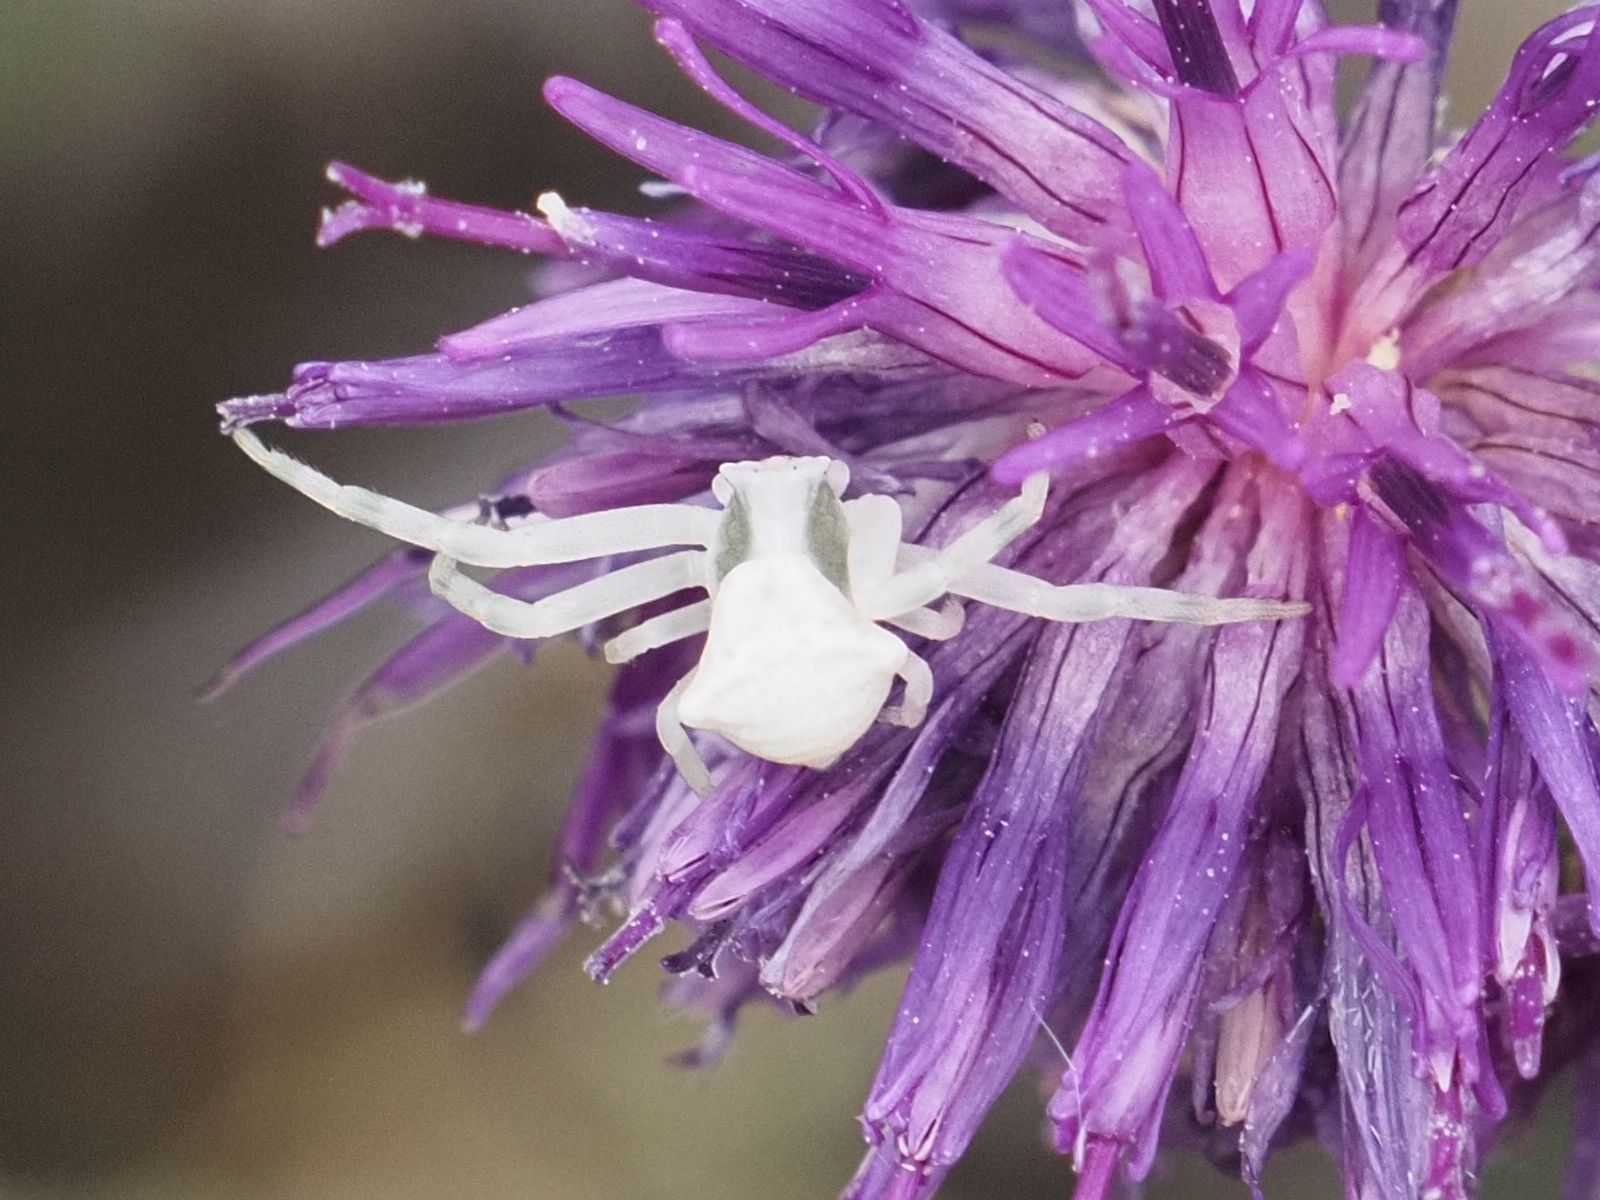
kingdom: Animalia
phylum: Arthropoda
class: Arachnida
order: Araneae
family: Thomisidae
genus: Thomisus
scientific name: Thomisus onustus
